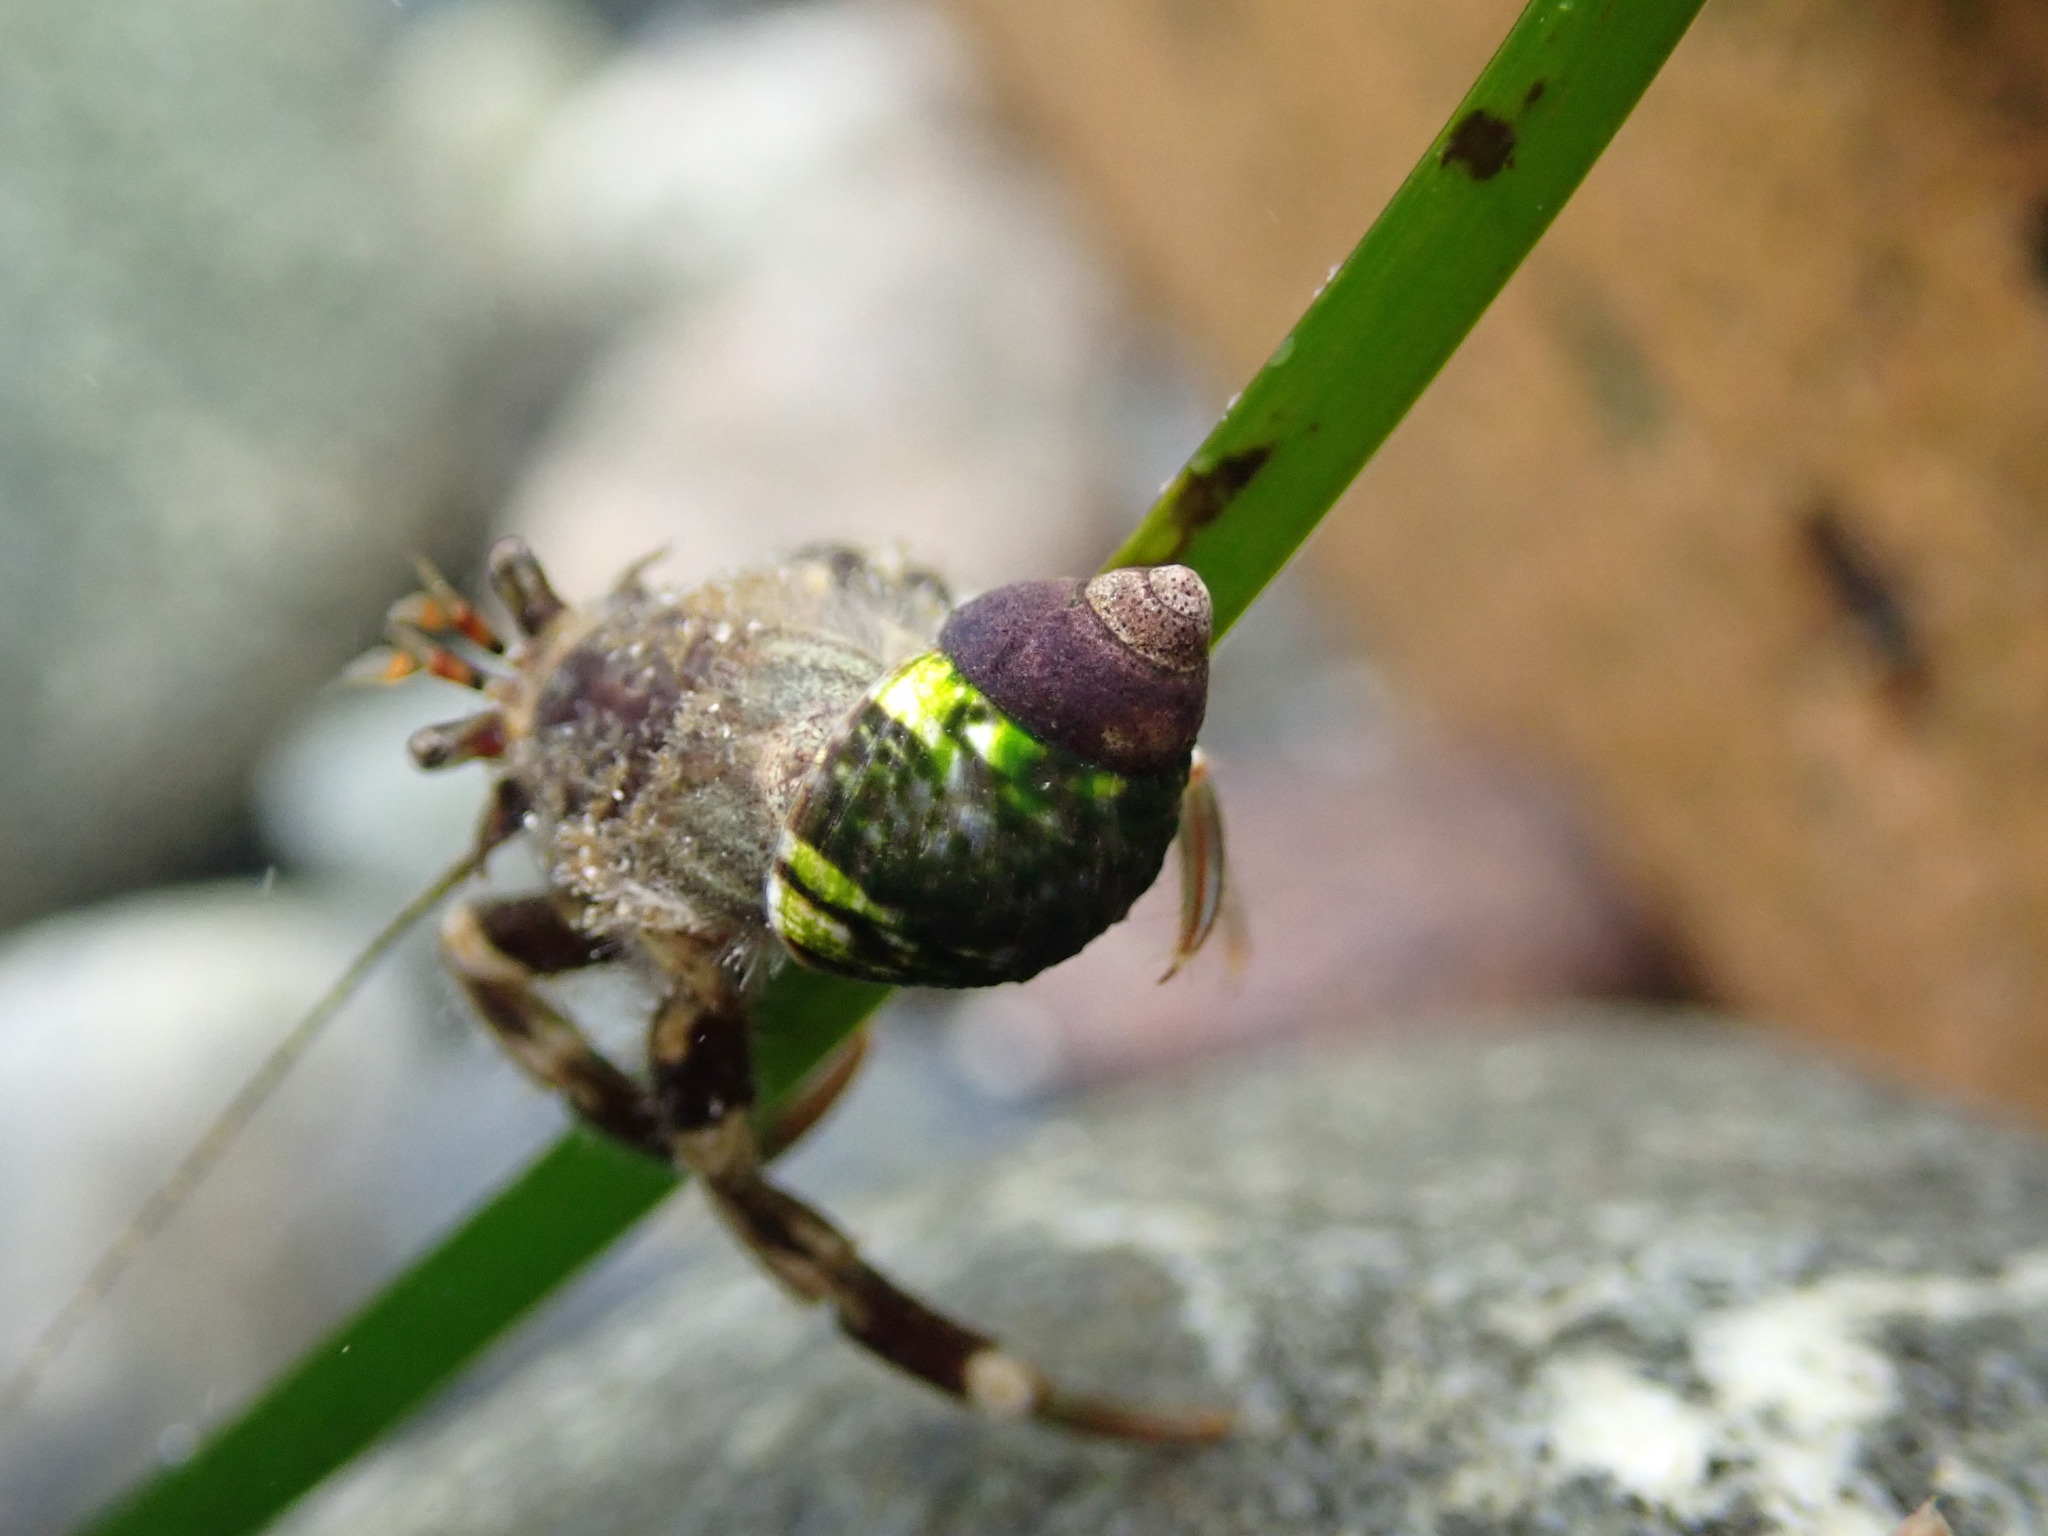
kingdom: Animalia
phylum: Arthropoda
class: Malacostraca
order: Decapoda
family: Paguridae
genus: Pagurus
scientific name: Pagurus hirsutiusculus
